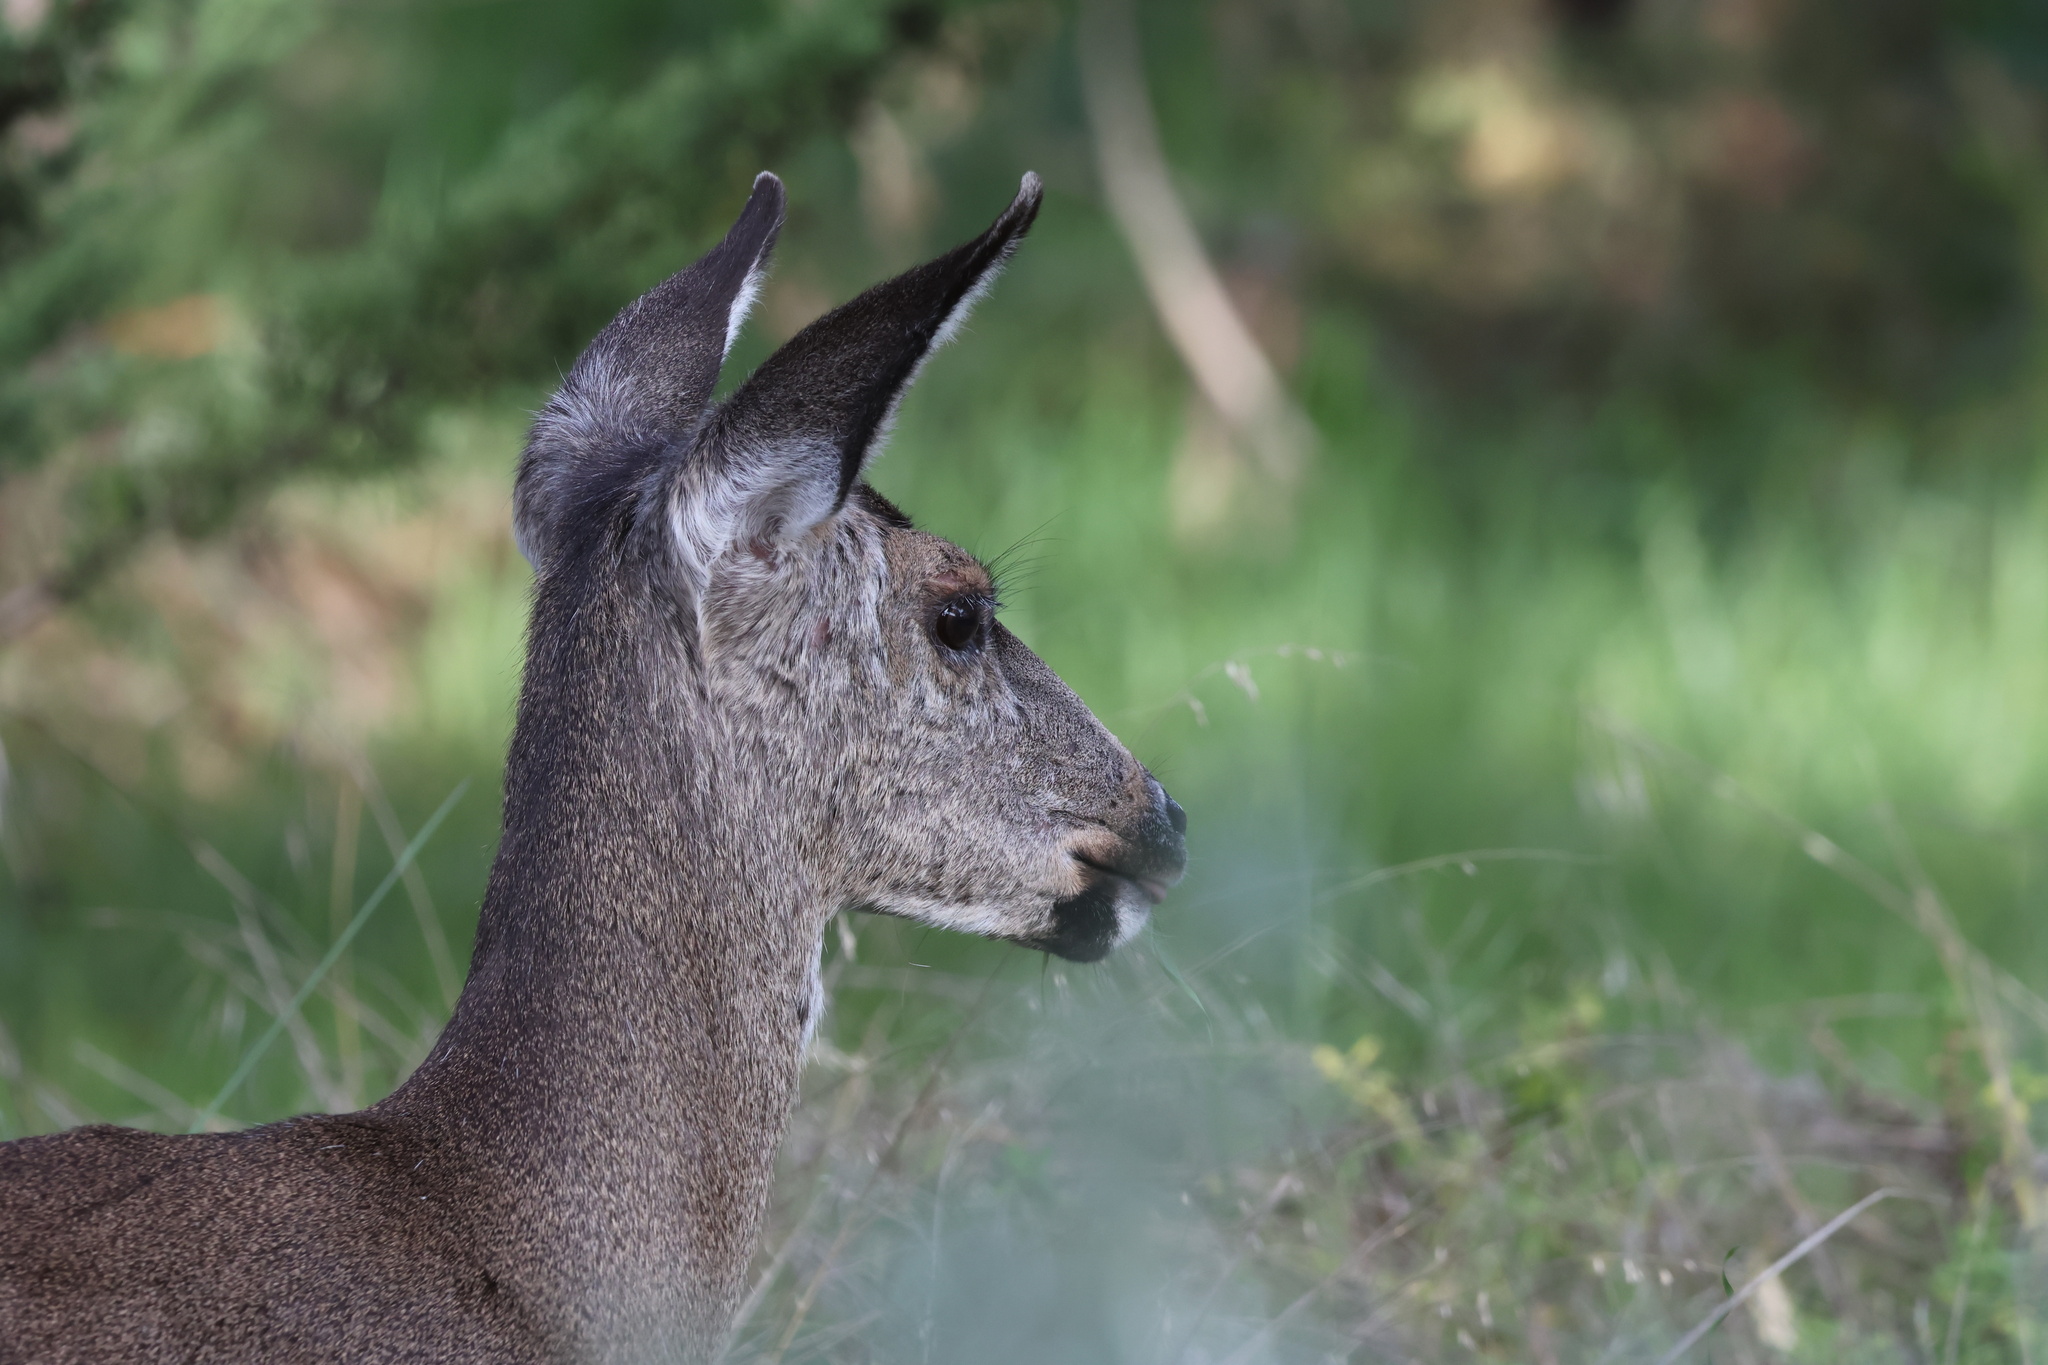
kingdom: Animalia
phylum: Chordata
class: Mammalia
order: Artiodactyla
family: Cervidae
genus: Odocoileus
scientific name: Odocoileus hemionus
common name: Mule deer
